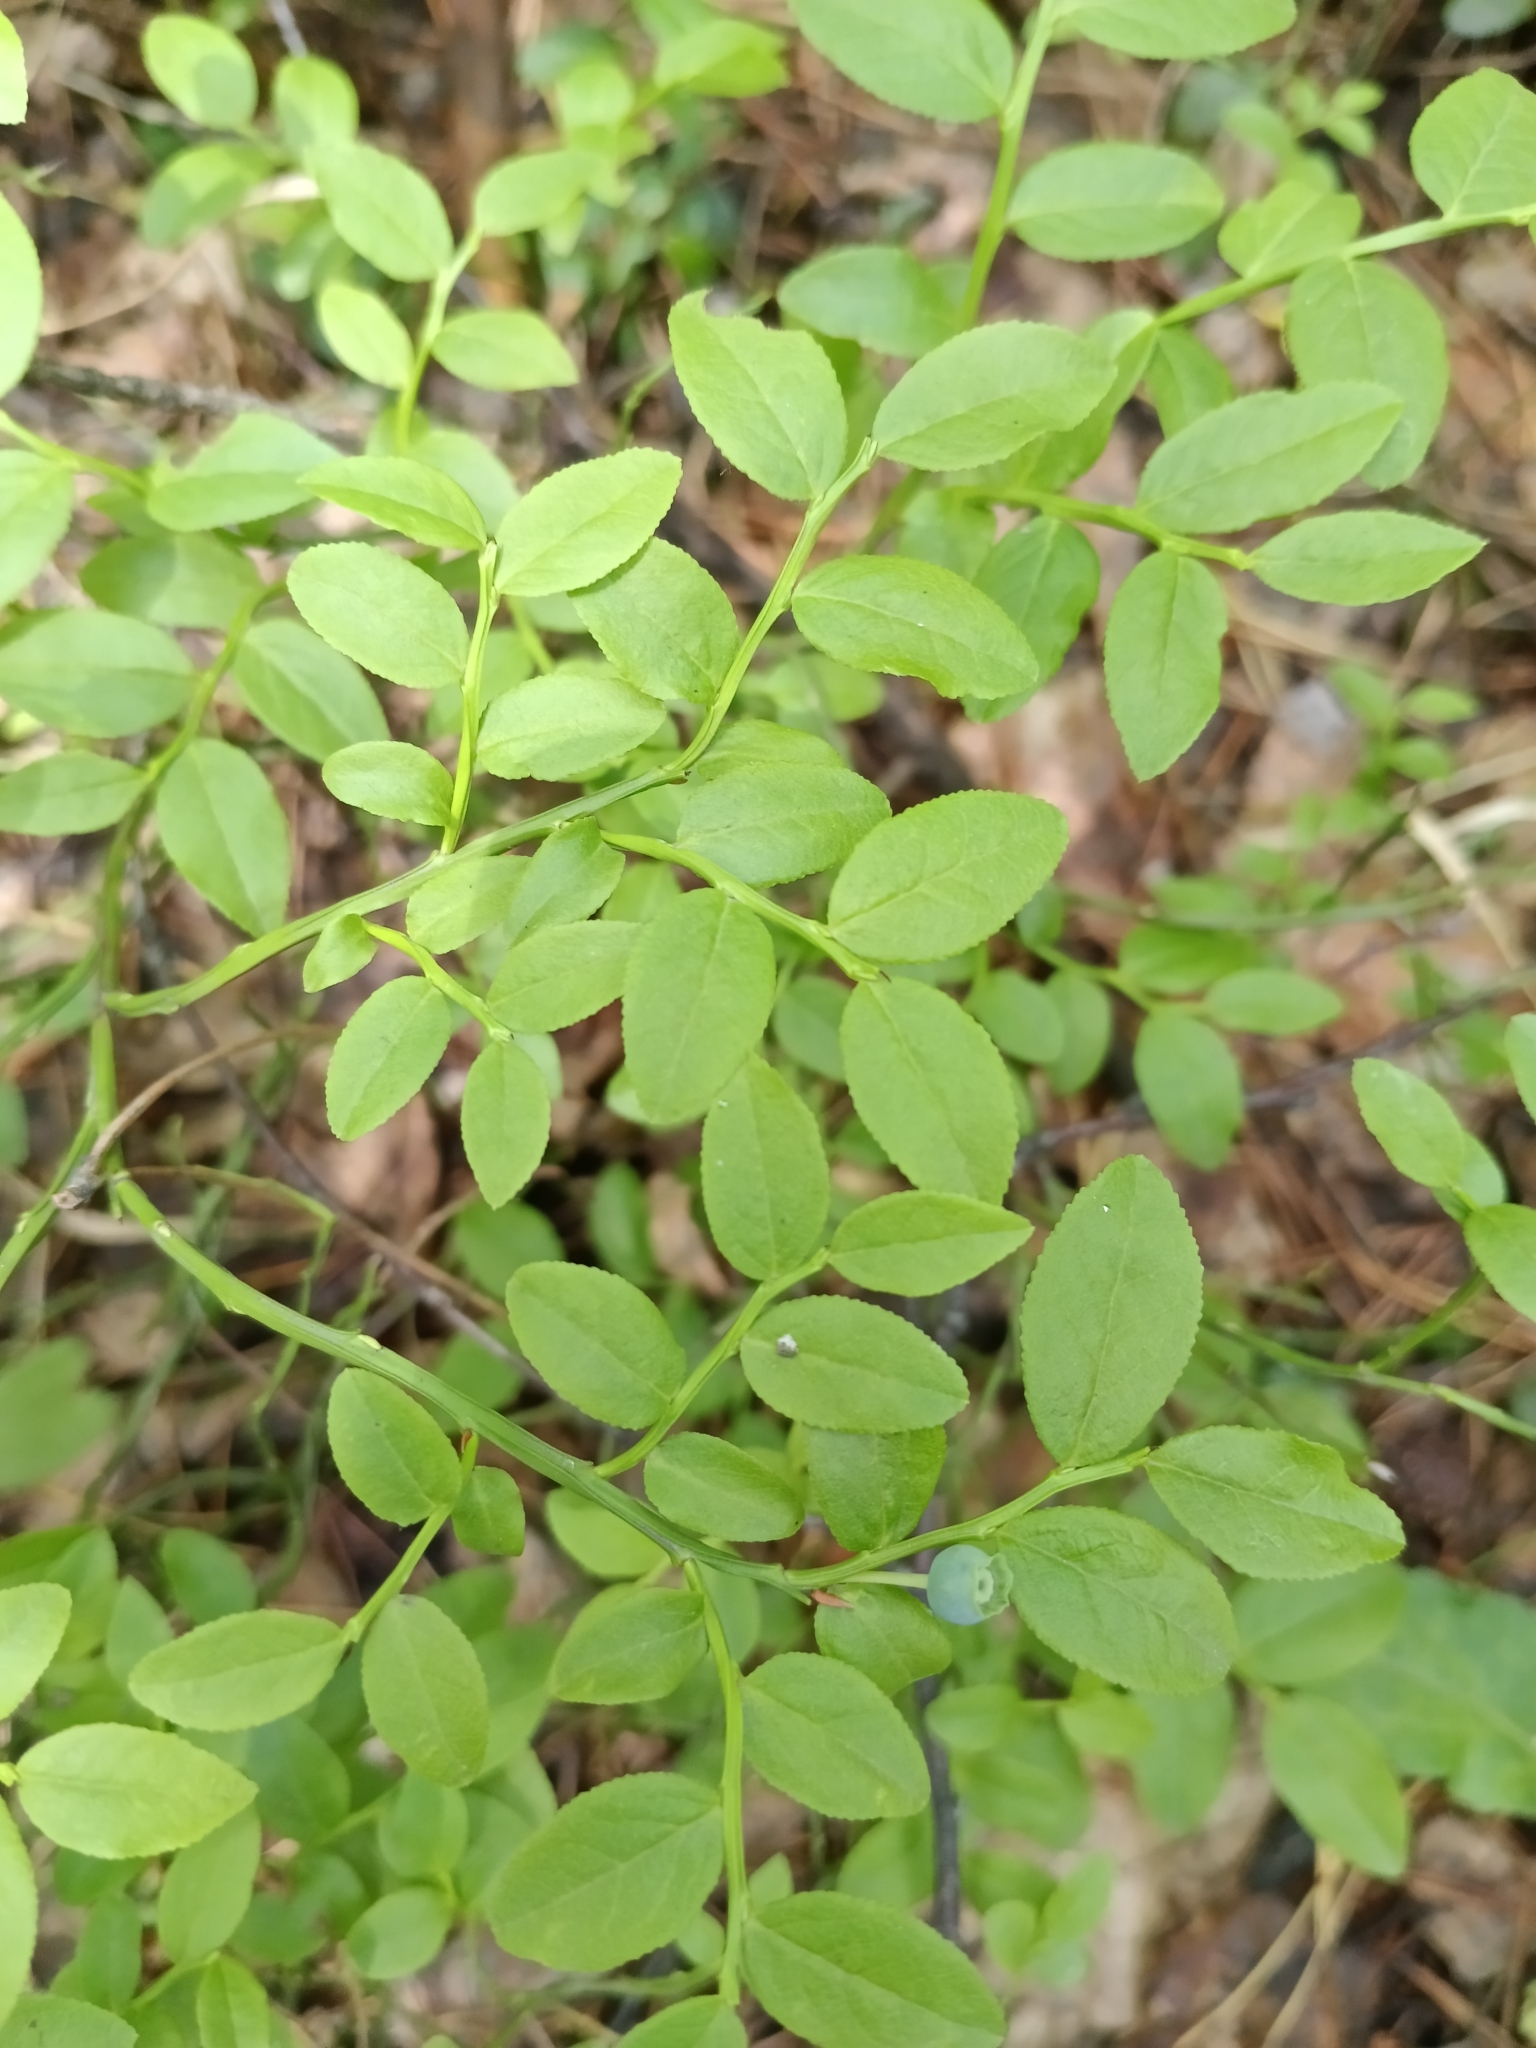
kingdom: Plantae
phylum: Tracheophyta
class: Magnoliopsida
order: Ericales
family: Ericaceae
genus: Vaccinium
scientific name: Vaccinium myrtillus
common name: Bilberry
